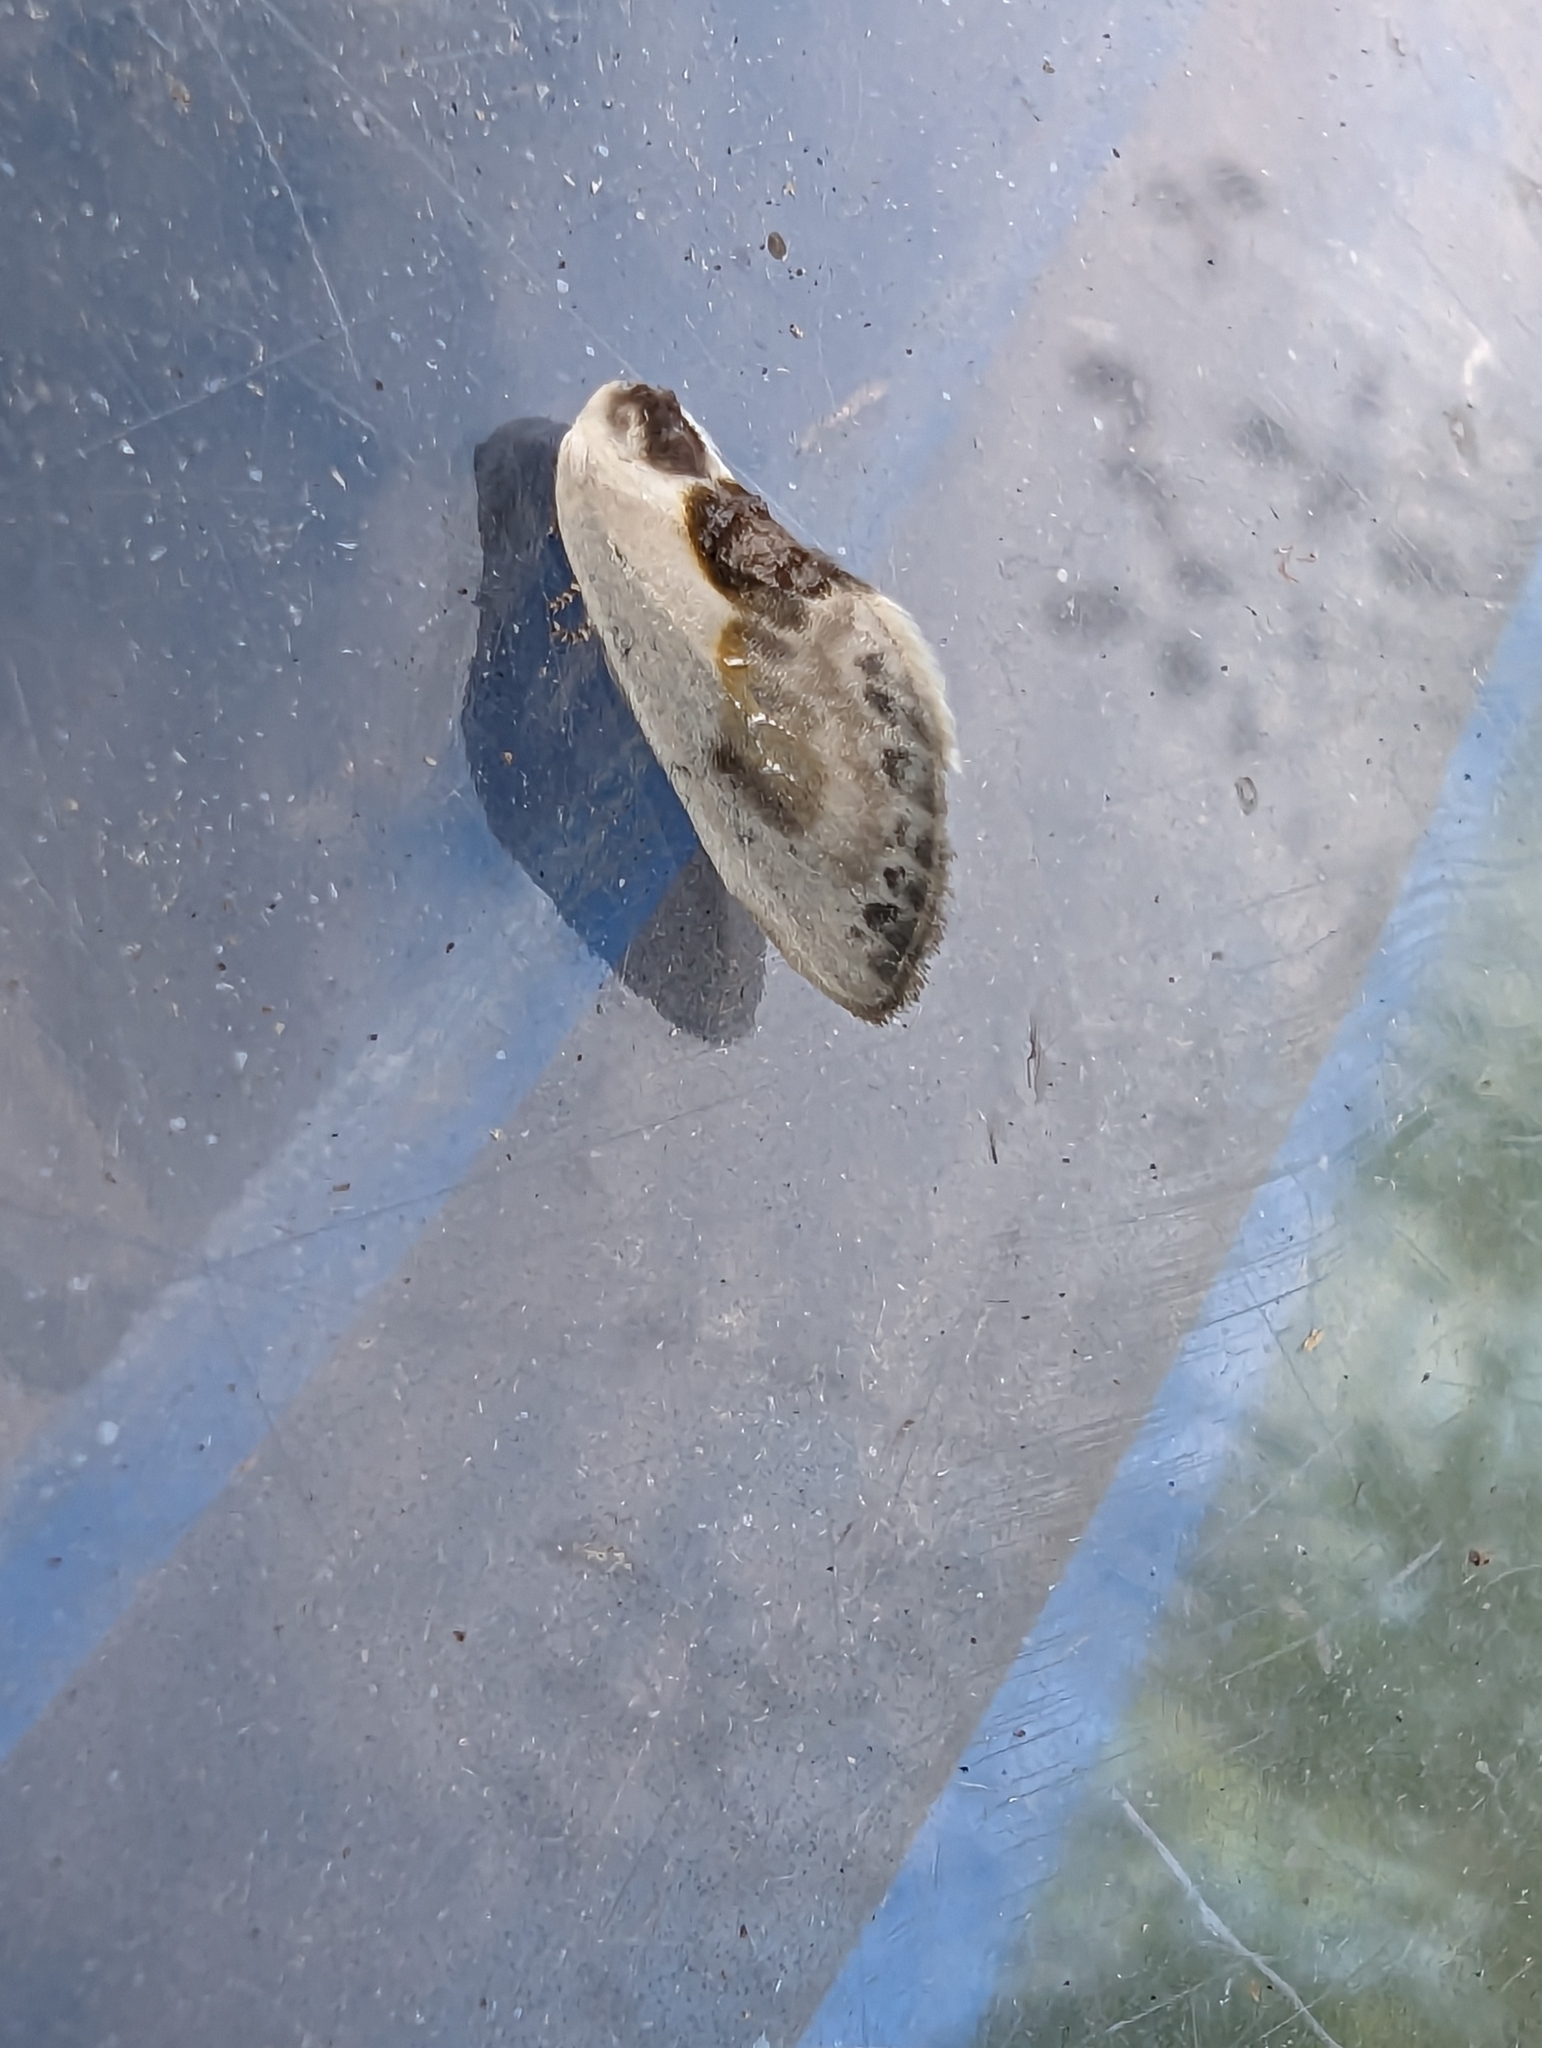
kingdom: Animalia
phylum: Arthropoda
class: Insecta
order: Lepidoptera
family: Drepanidae
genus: Cilix
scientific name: Cilix glaucata
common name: Chinese character
